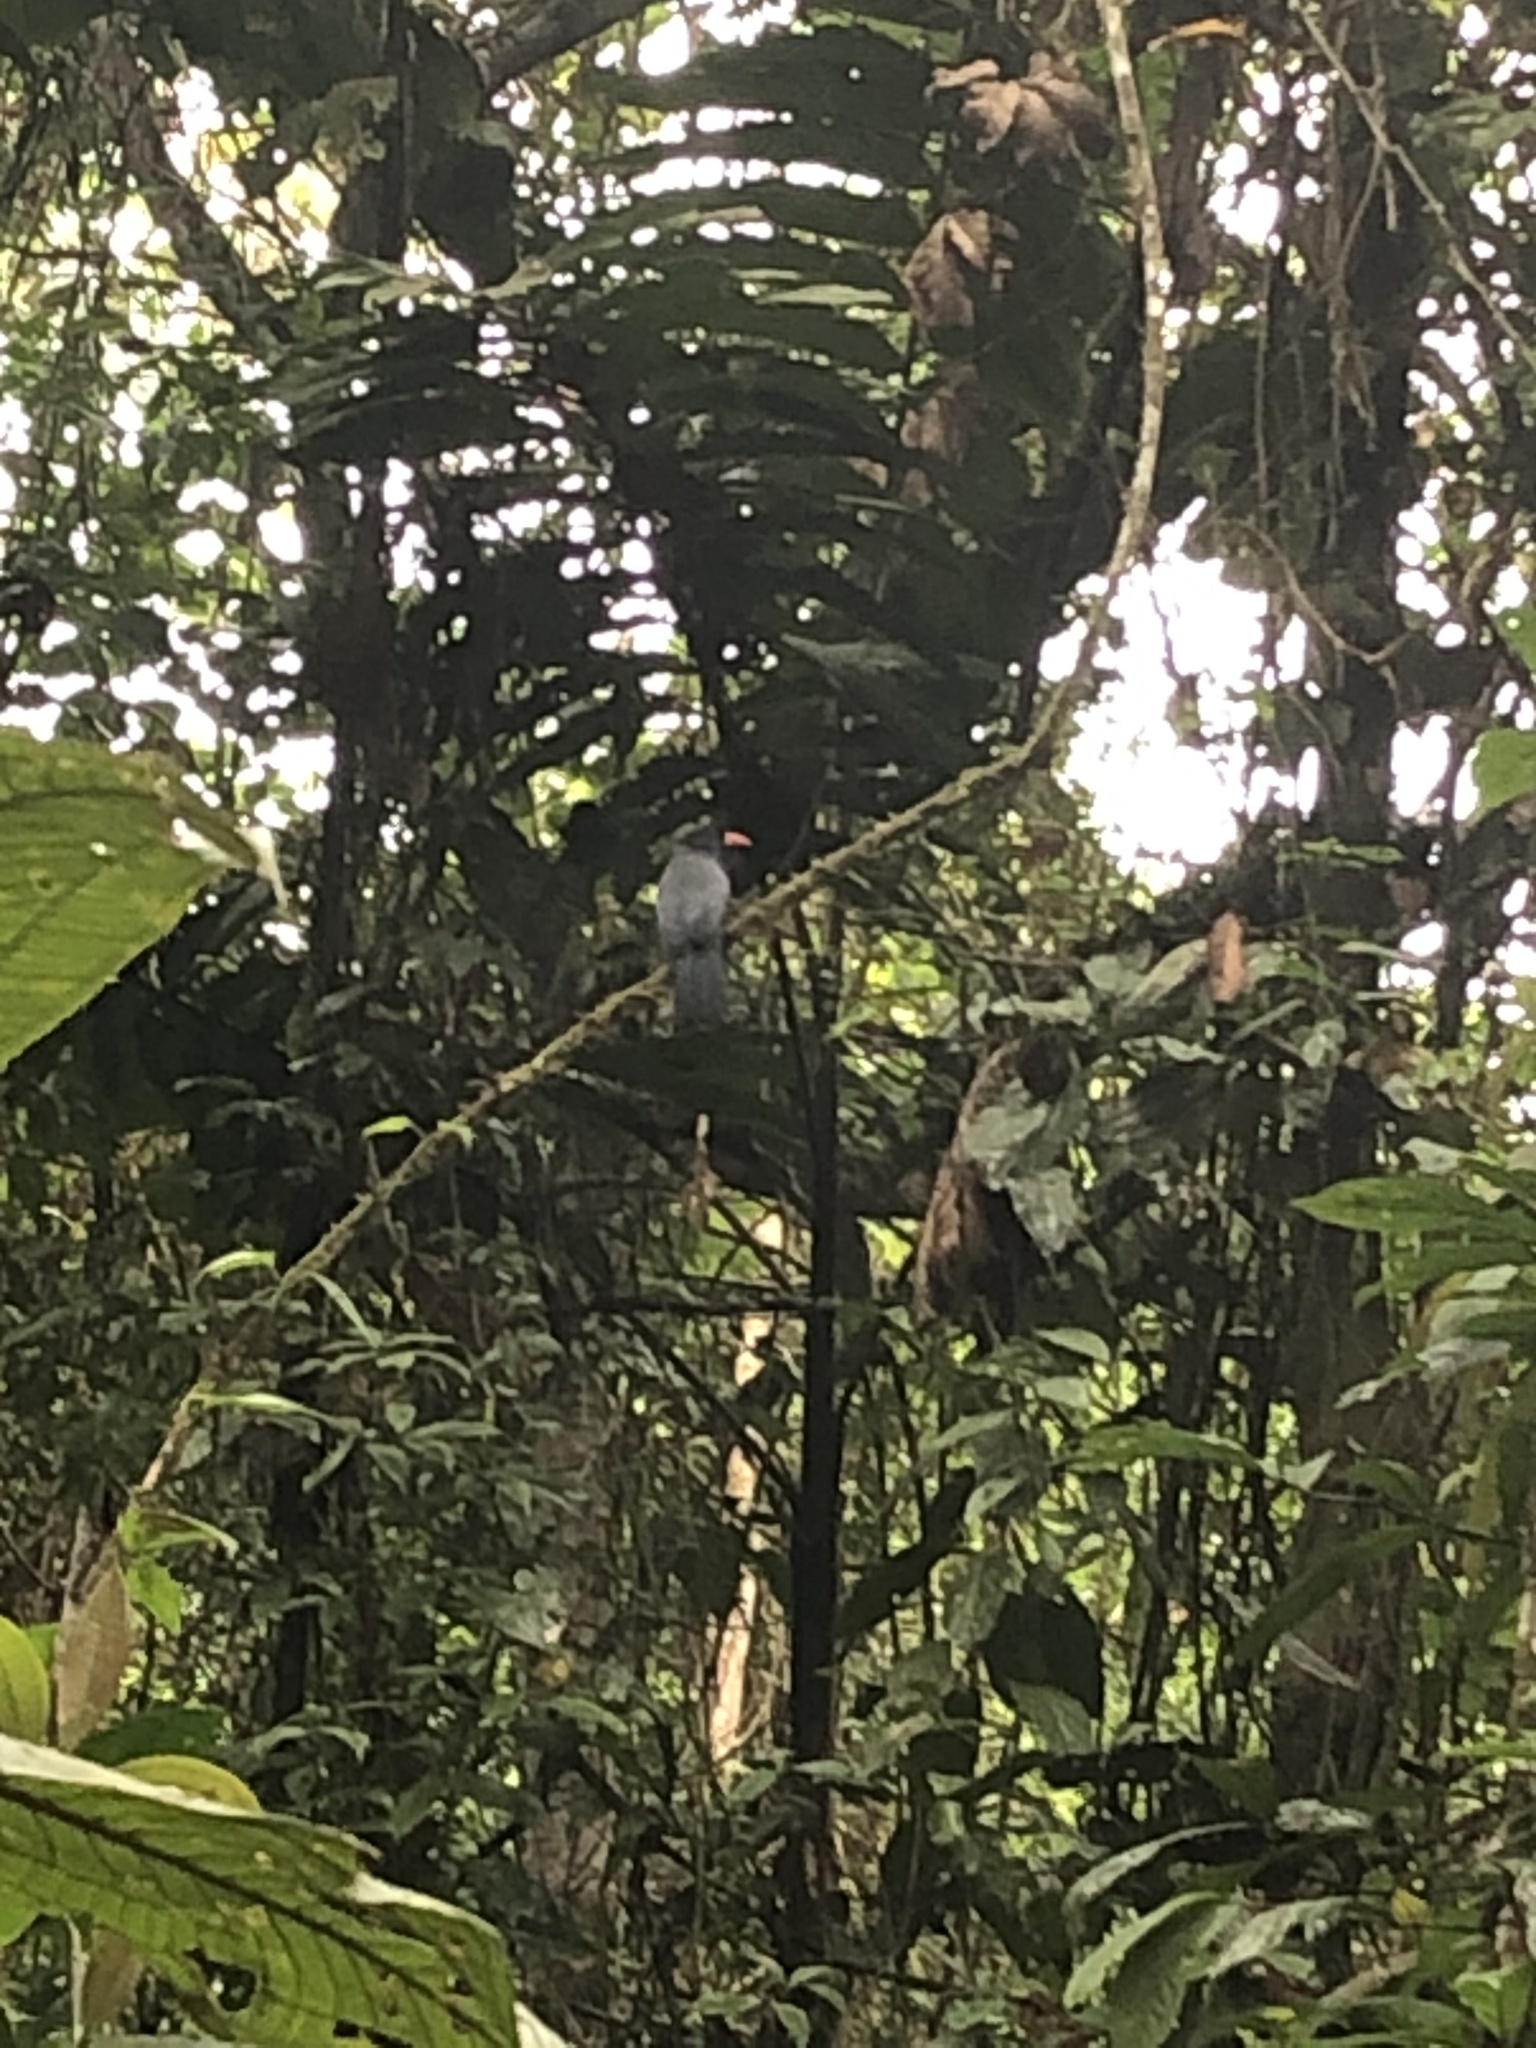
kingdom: Animalia
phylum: Chordata
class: Aves
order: Piciformes
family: Bucconidae
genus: Monasa
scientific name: Monasa nigrifrons
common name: Black-fronted nunbird
